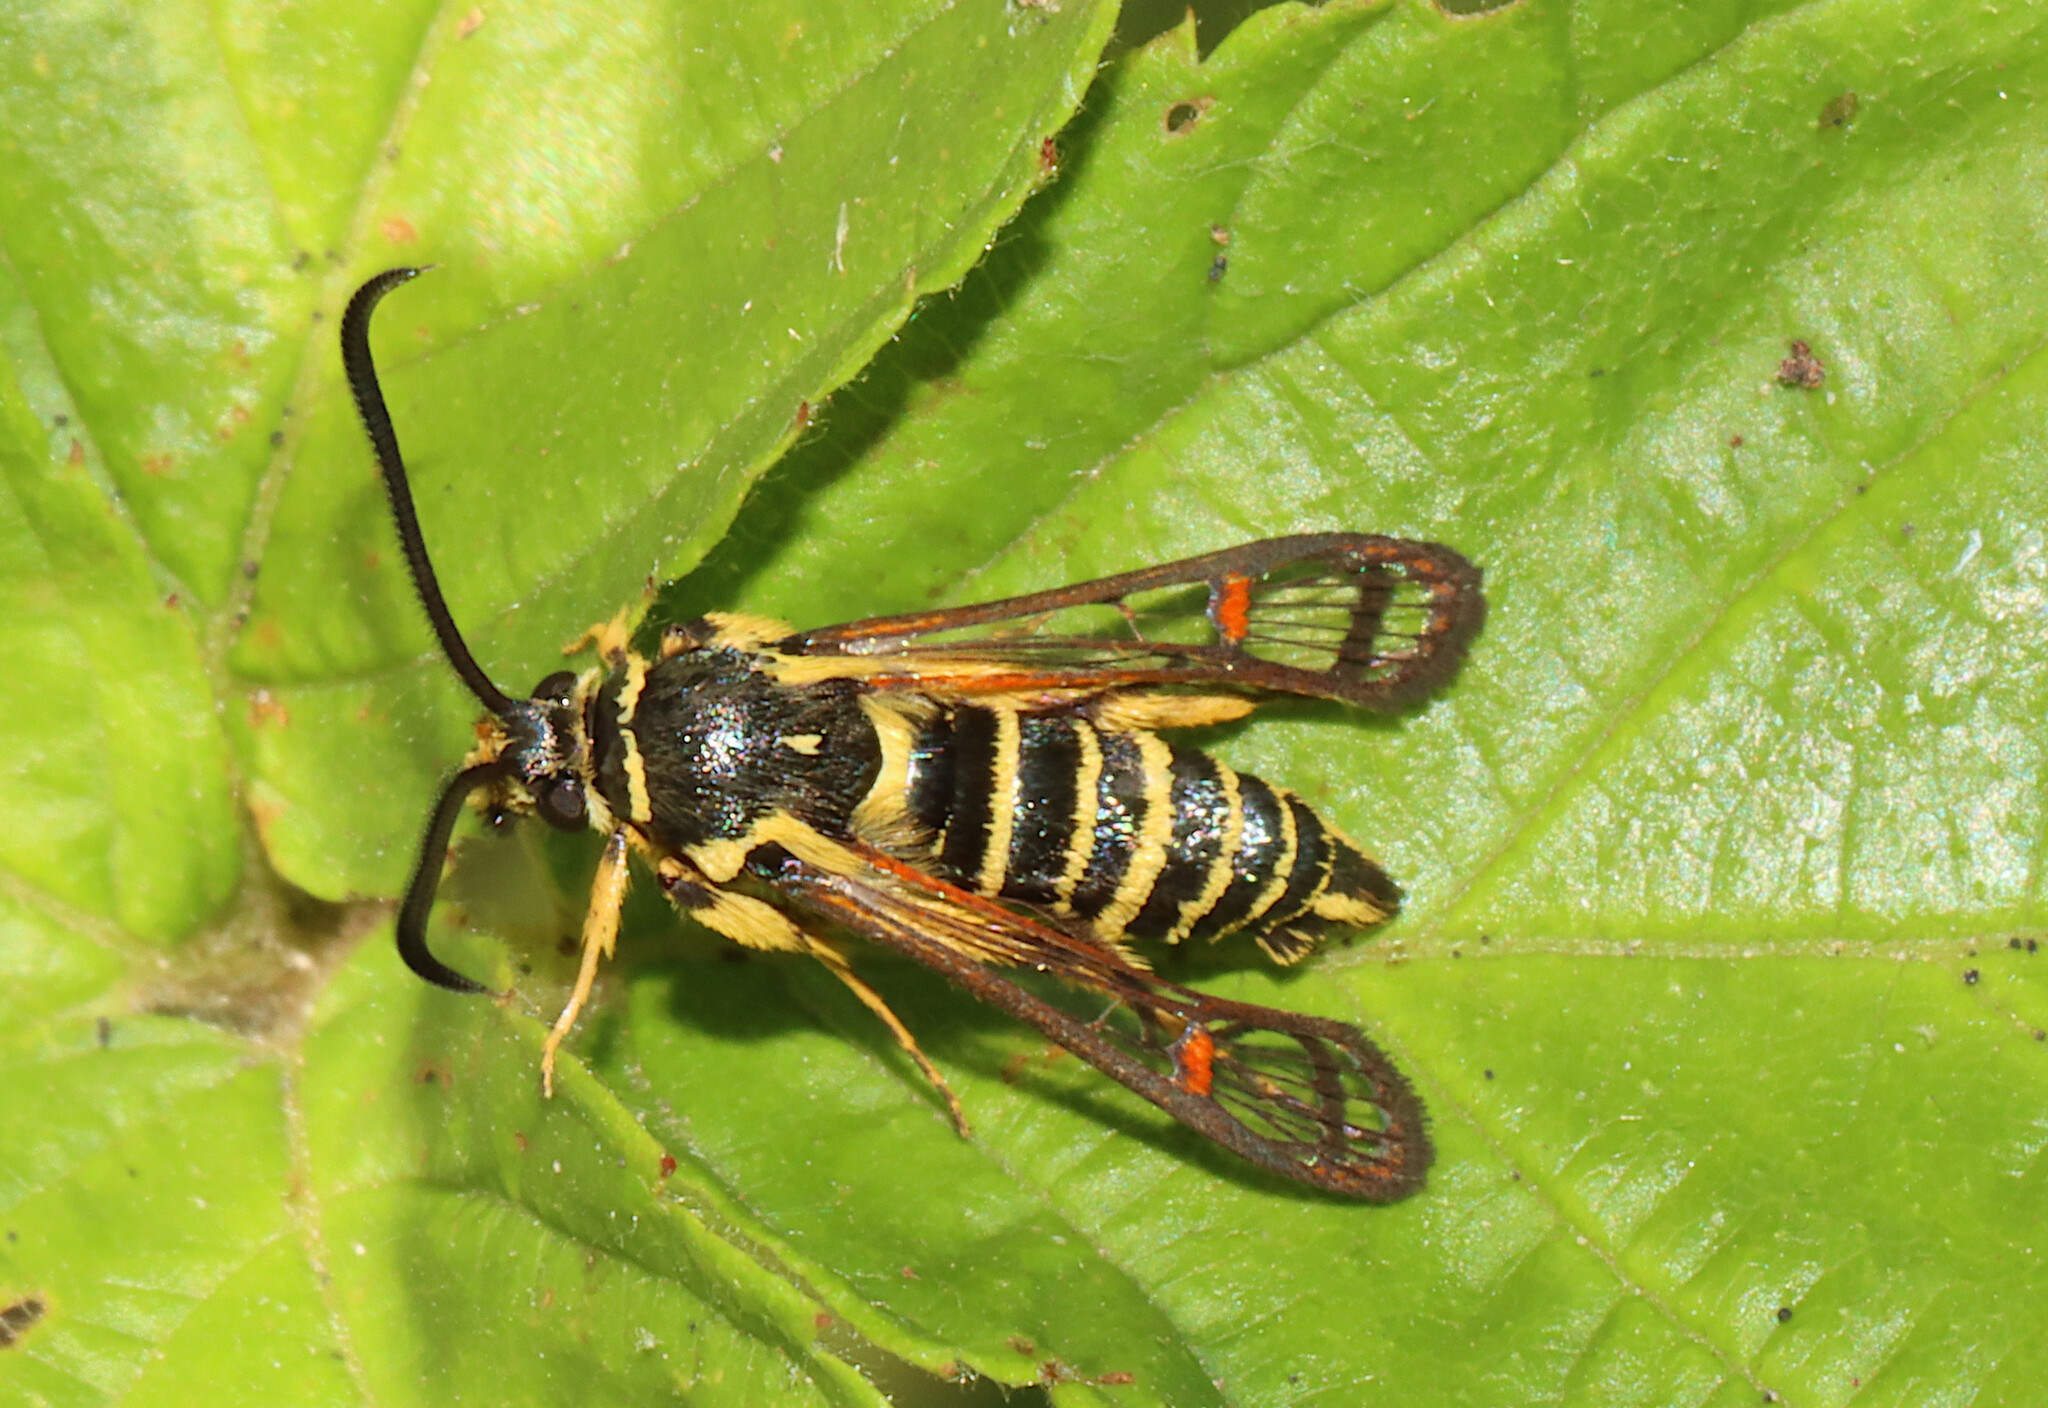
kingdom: Animalia
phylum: Arthropoda
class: Insecta
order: Lepidoptera
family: Sesiidae
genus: Synanthedon
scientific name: Synanthedon rileyana
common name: Riley's clearwing moth
